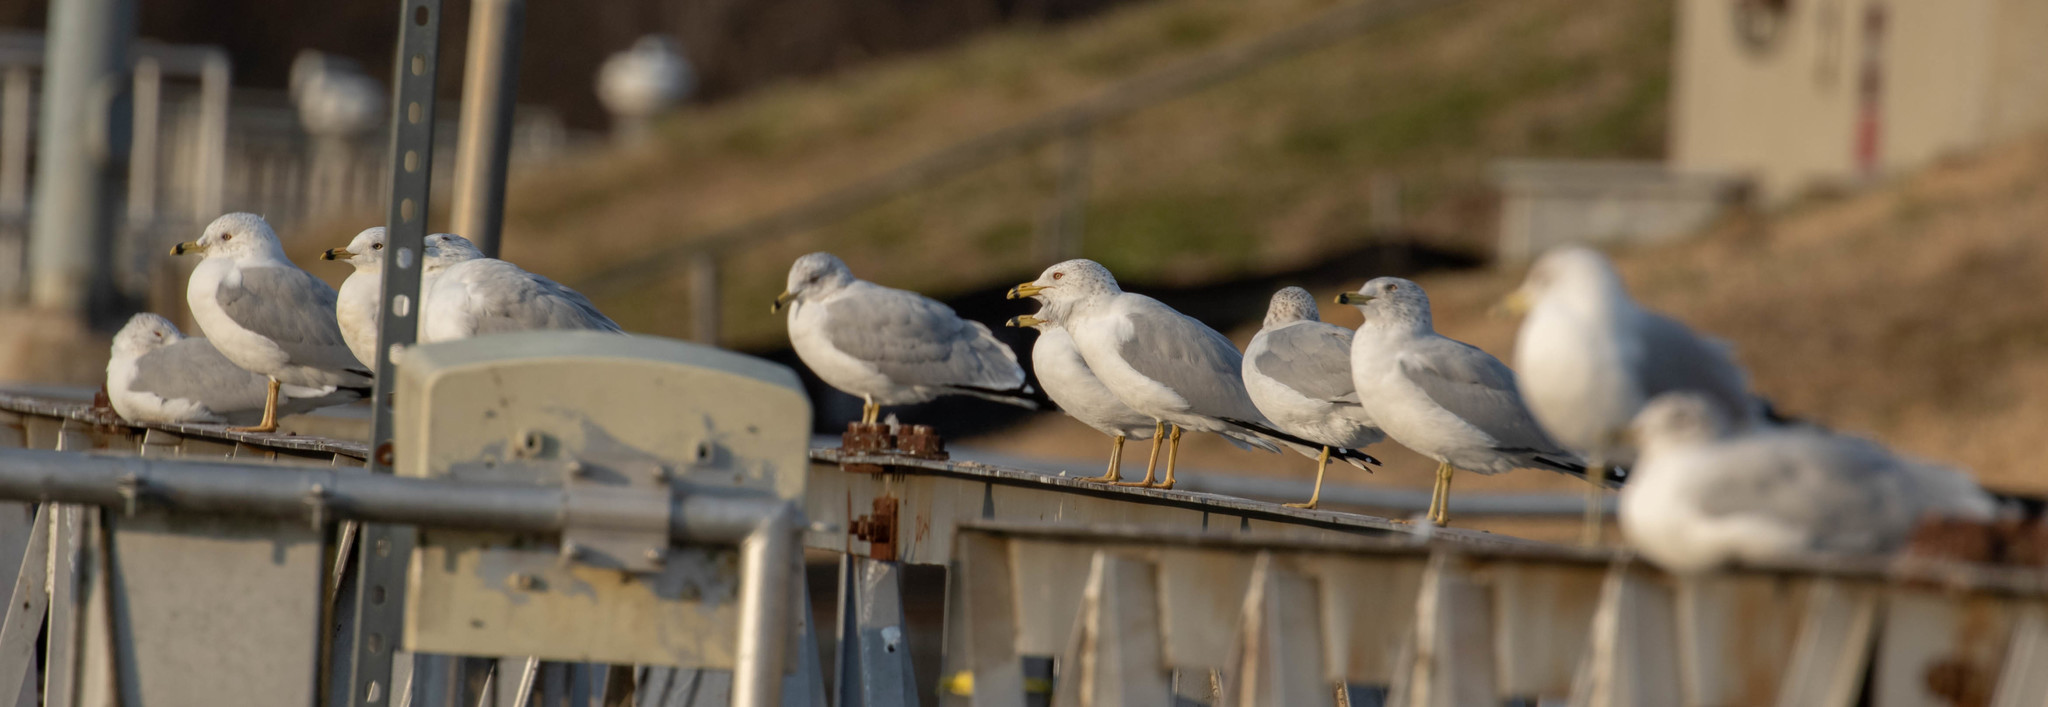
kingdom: Animalia
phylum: Chordata
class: Aves
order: Charadriiformes
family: Laridae
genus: Larus
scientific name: Larus delawarensis
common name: Ring-billed gull
